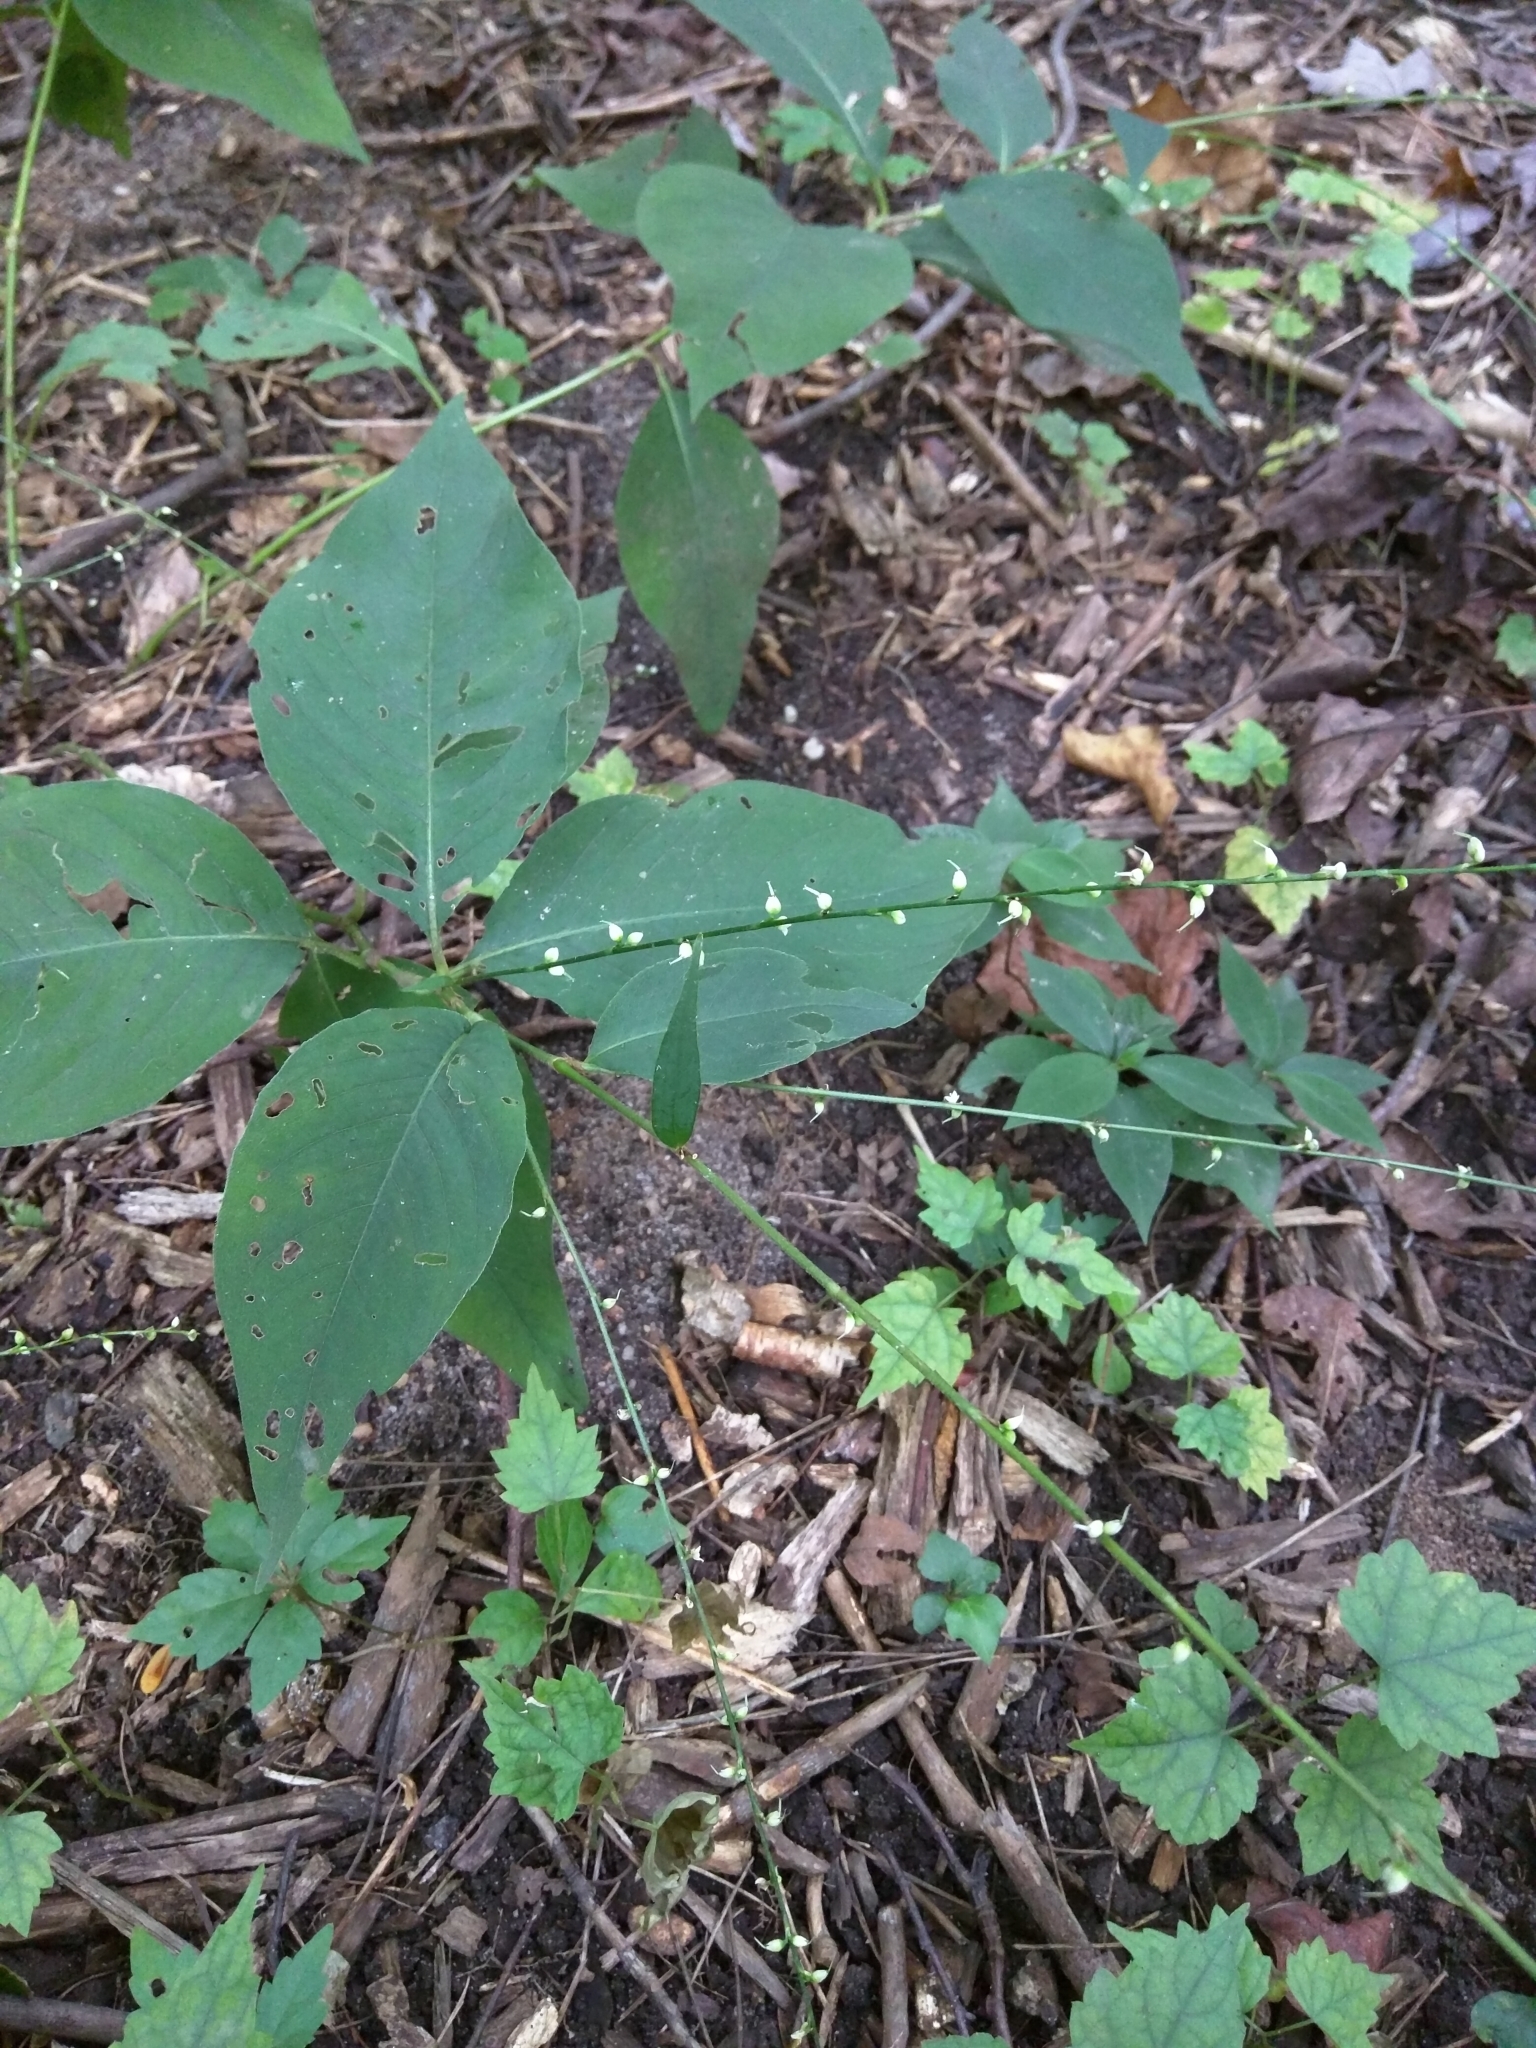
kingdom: Plantae
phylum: Tracheophyta
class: Magnoliopsida
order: Caryophyllales
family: Polygonaceae
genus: Persicaria
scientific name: Persicaria virginiana
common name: Jumpseed
